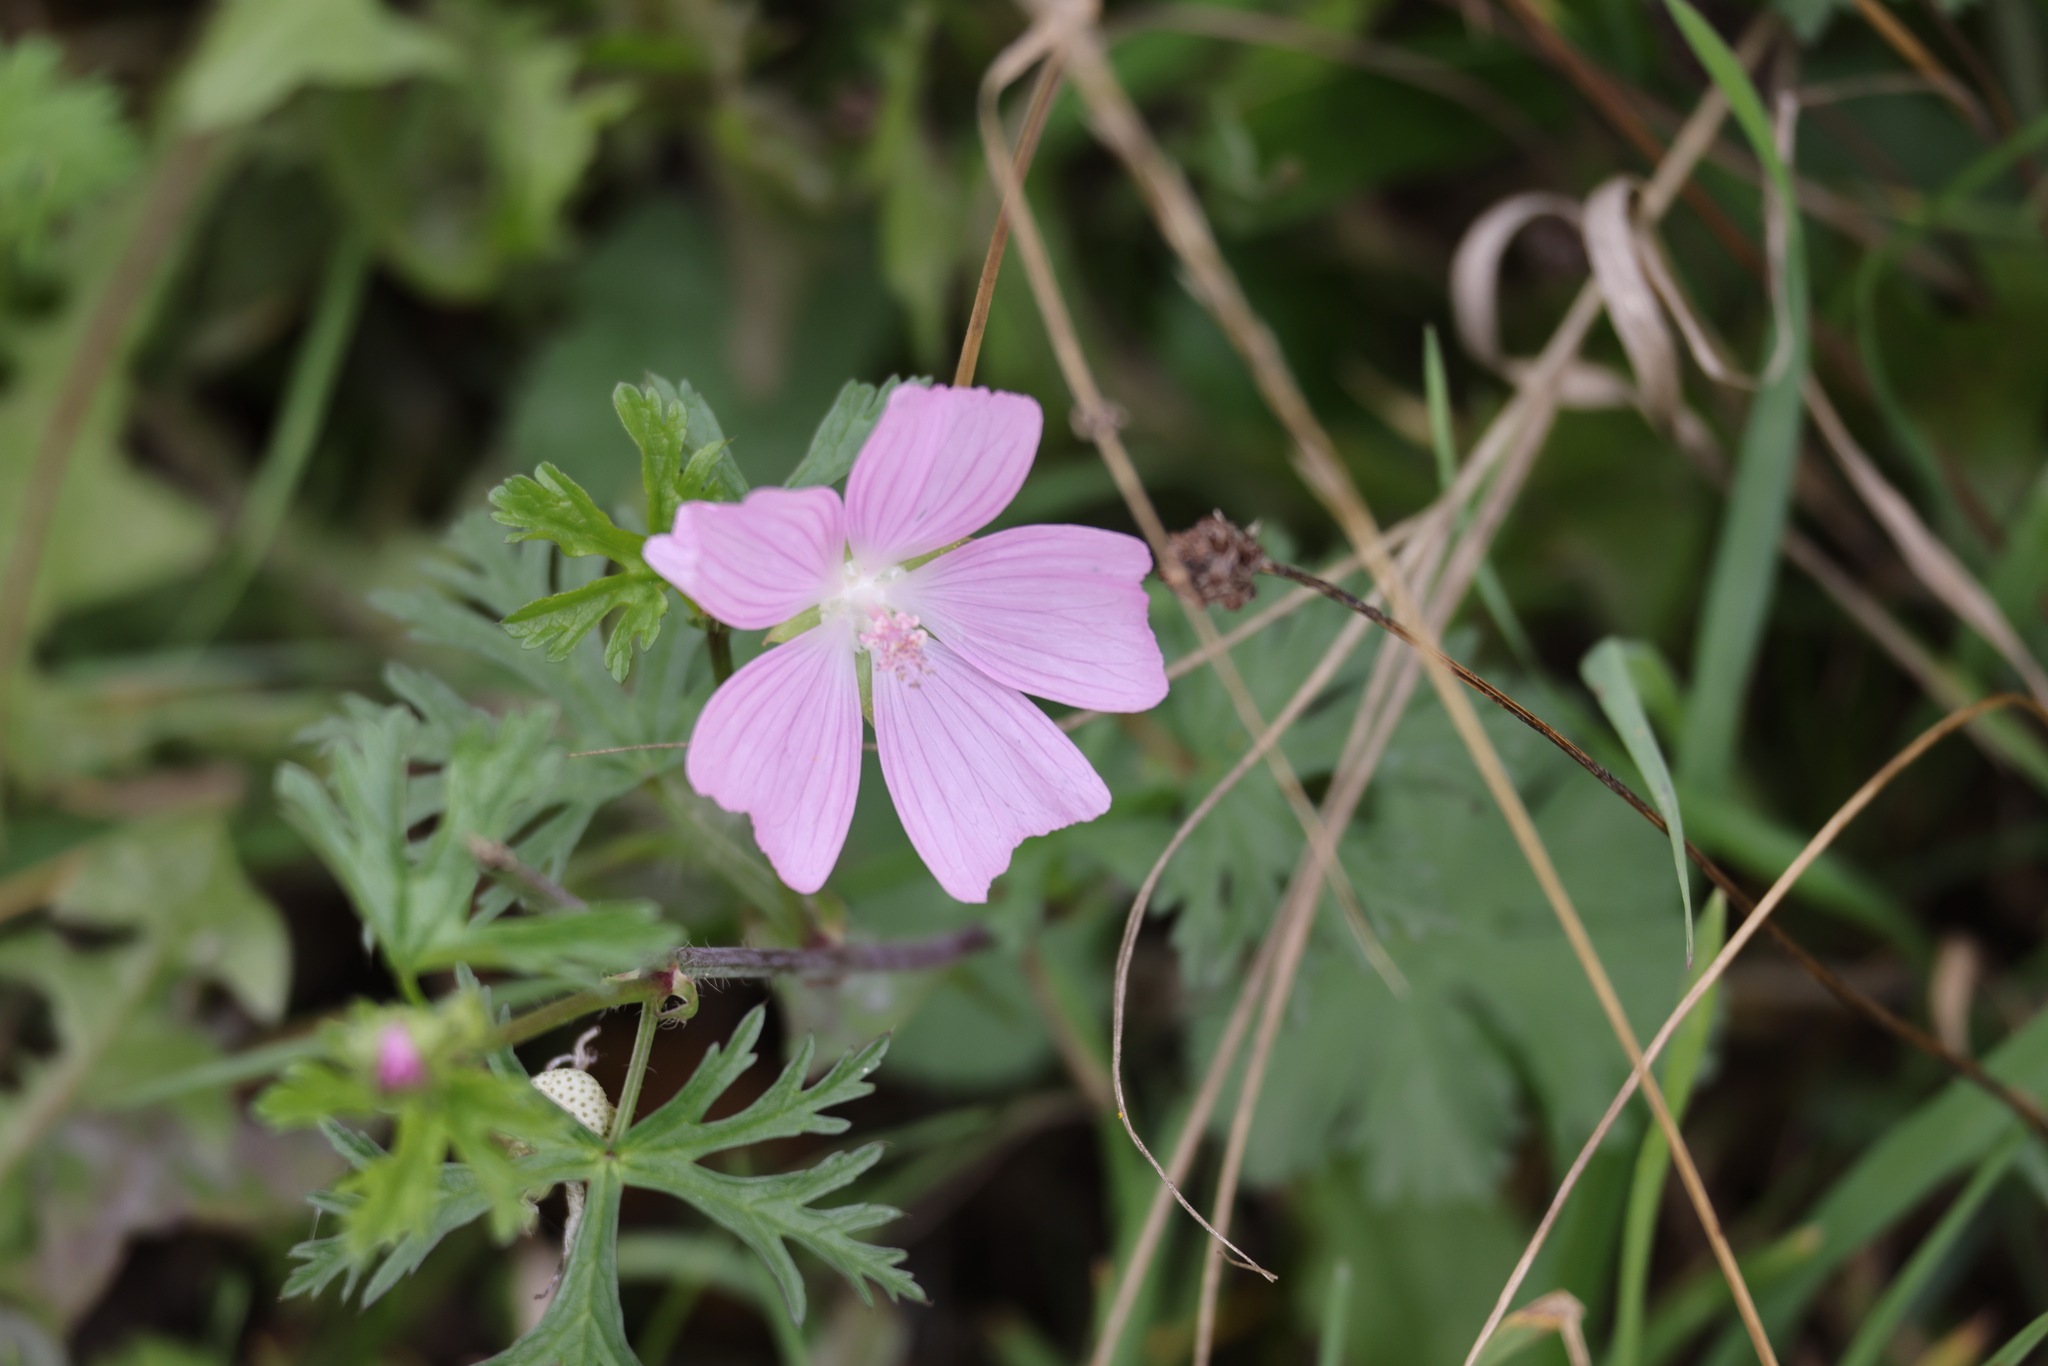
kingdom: Plantae
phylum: Tracheophyta
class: Magnoliopsida
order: Malvales
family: Malvaceae
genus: Malva
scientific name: Malva moschata
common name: Musk mallow
